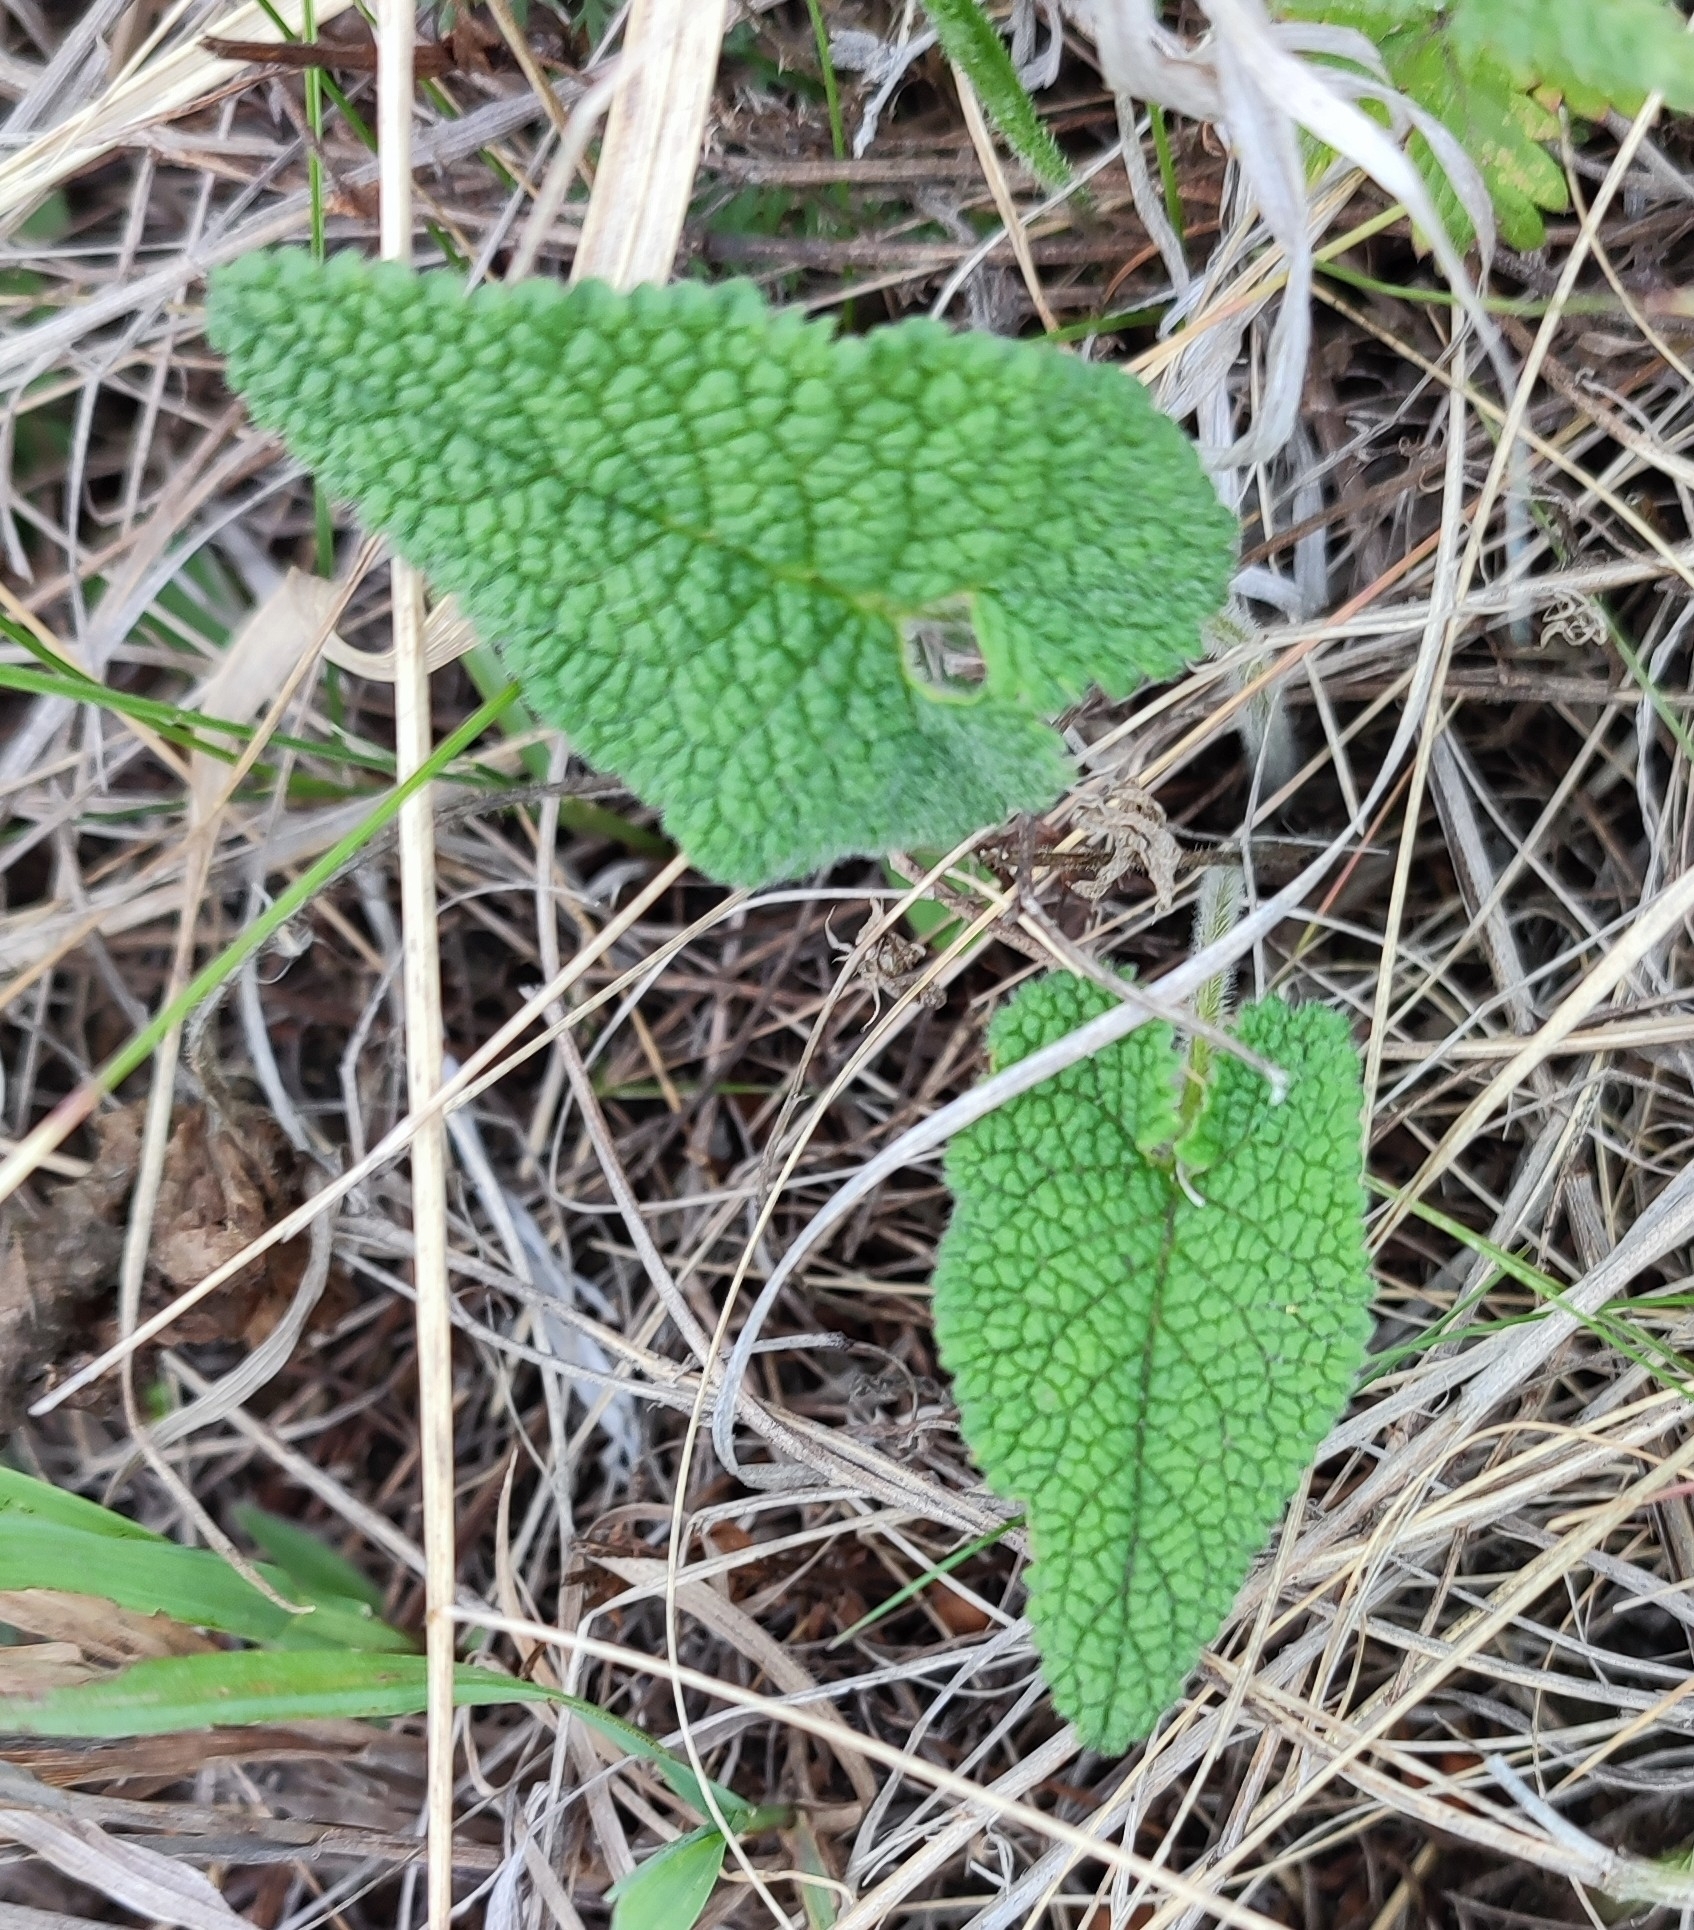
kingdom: Plantae
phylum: Tracheophyta
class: Magnoliopsida
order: Lamiales
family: Lamiaceae
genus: Phlomoides
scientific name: Phlomoides tuberosa
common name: Tuberous jerusalem sage
